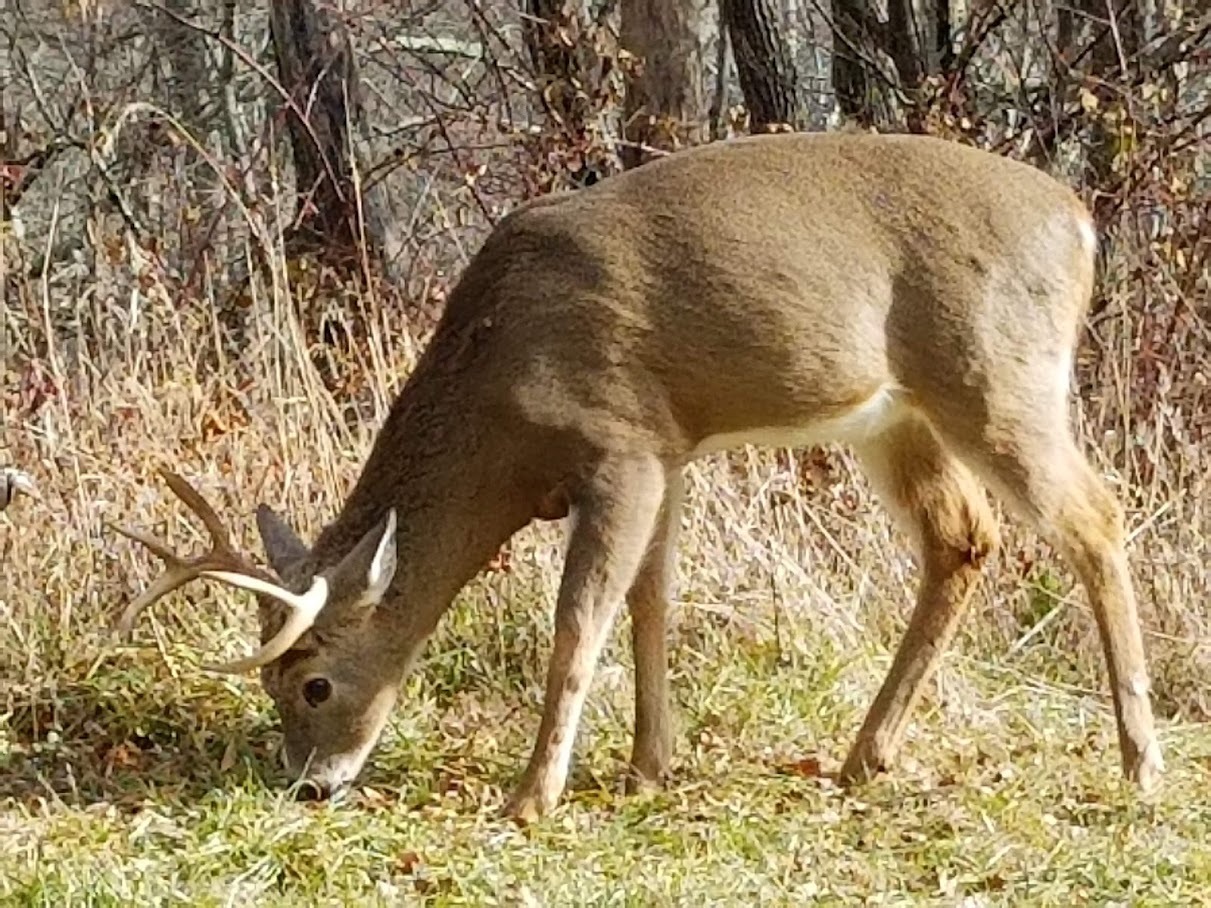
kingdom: Animalia
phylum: Chordata
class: Mammalia
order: Artiodactyla
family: Cervidae
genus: Odocoileus
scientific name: Odocoileus virginianus
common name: White-tailed deer
